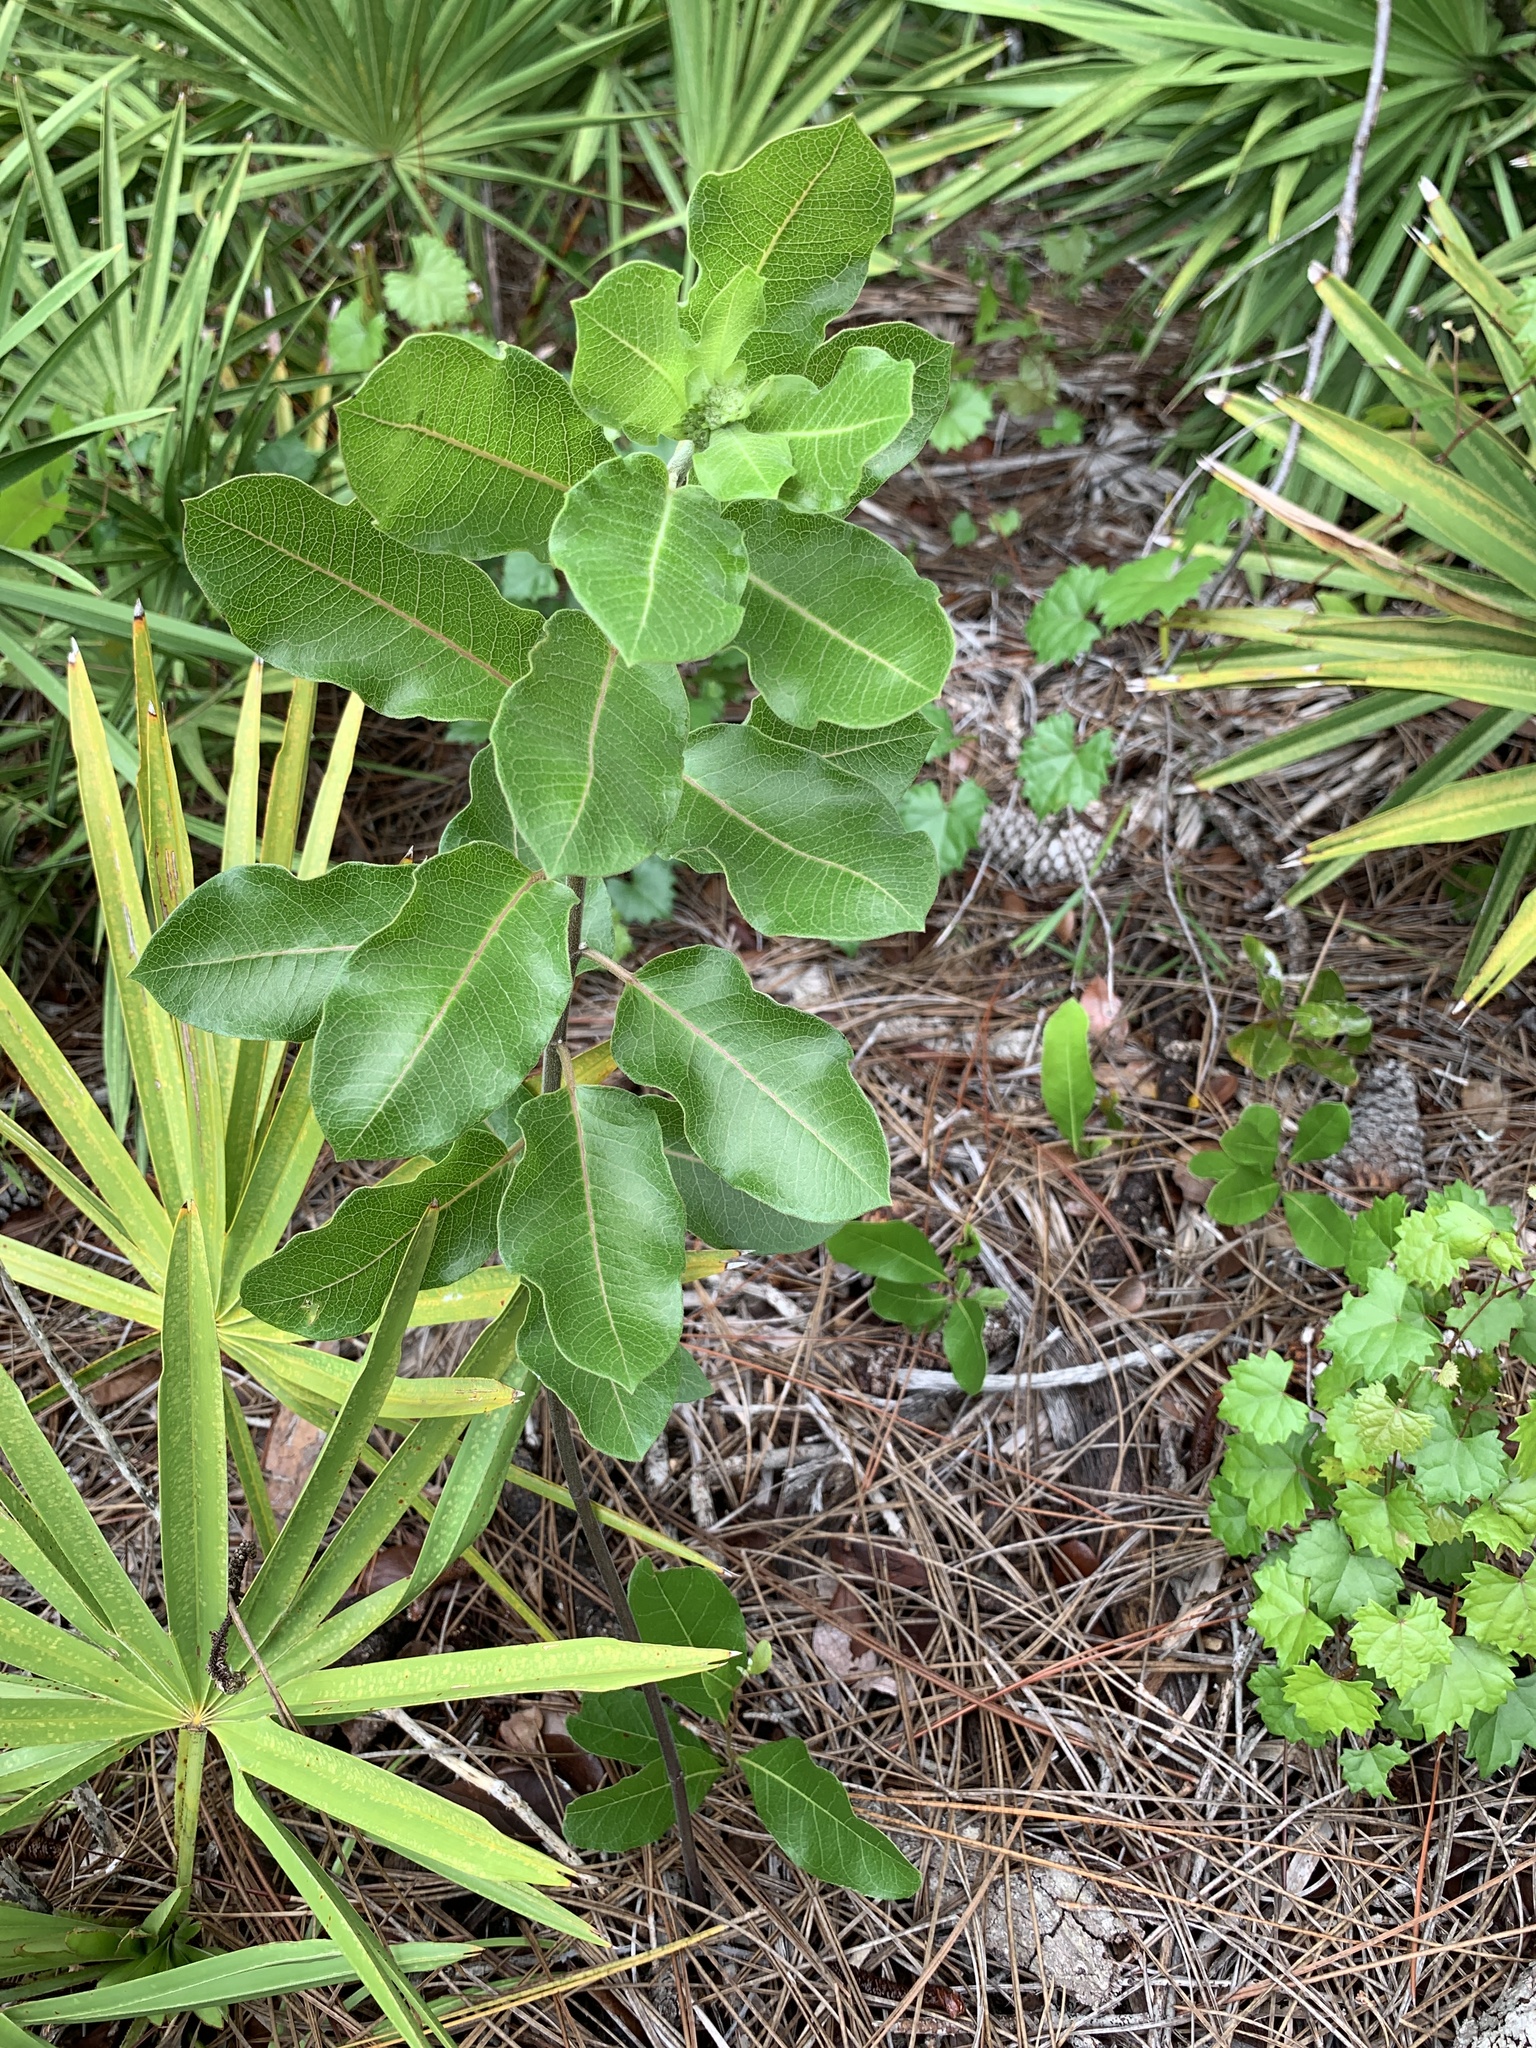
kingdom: Plantae
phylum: Tracheophyta
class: Magnoliopsida
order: Gentianales
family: Apocynaceae
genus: Asclepias
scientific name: Asclepias tomentosa
